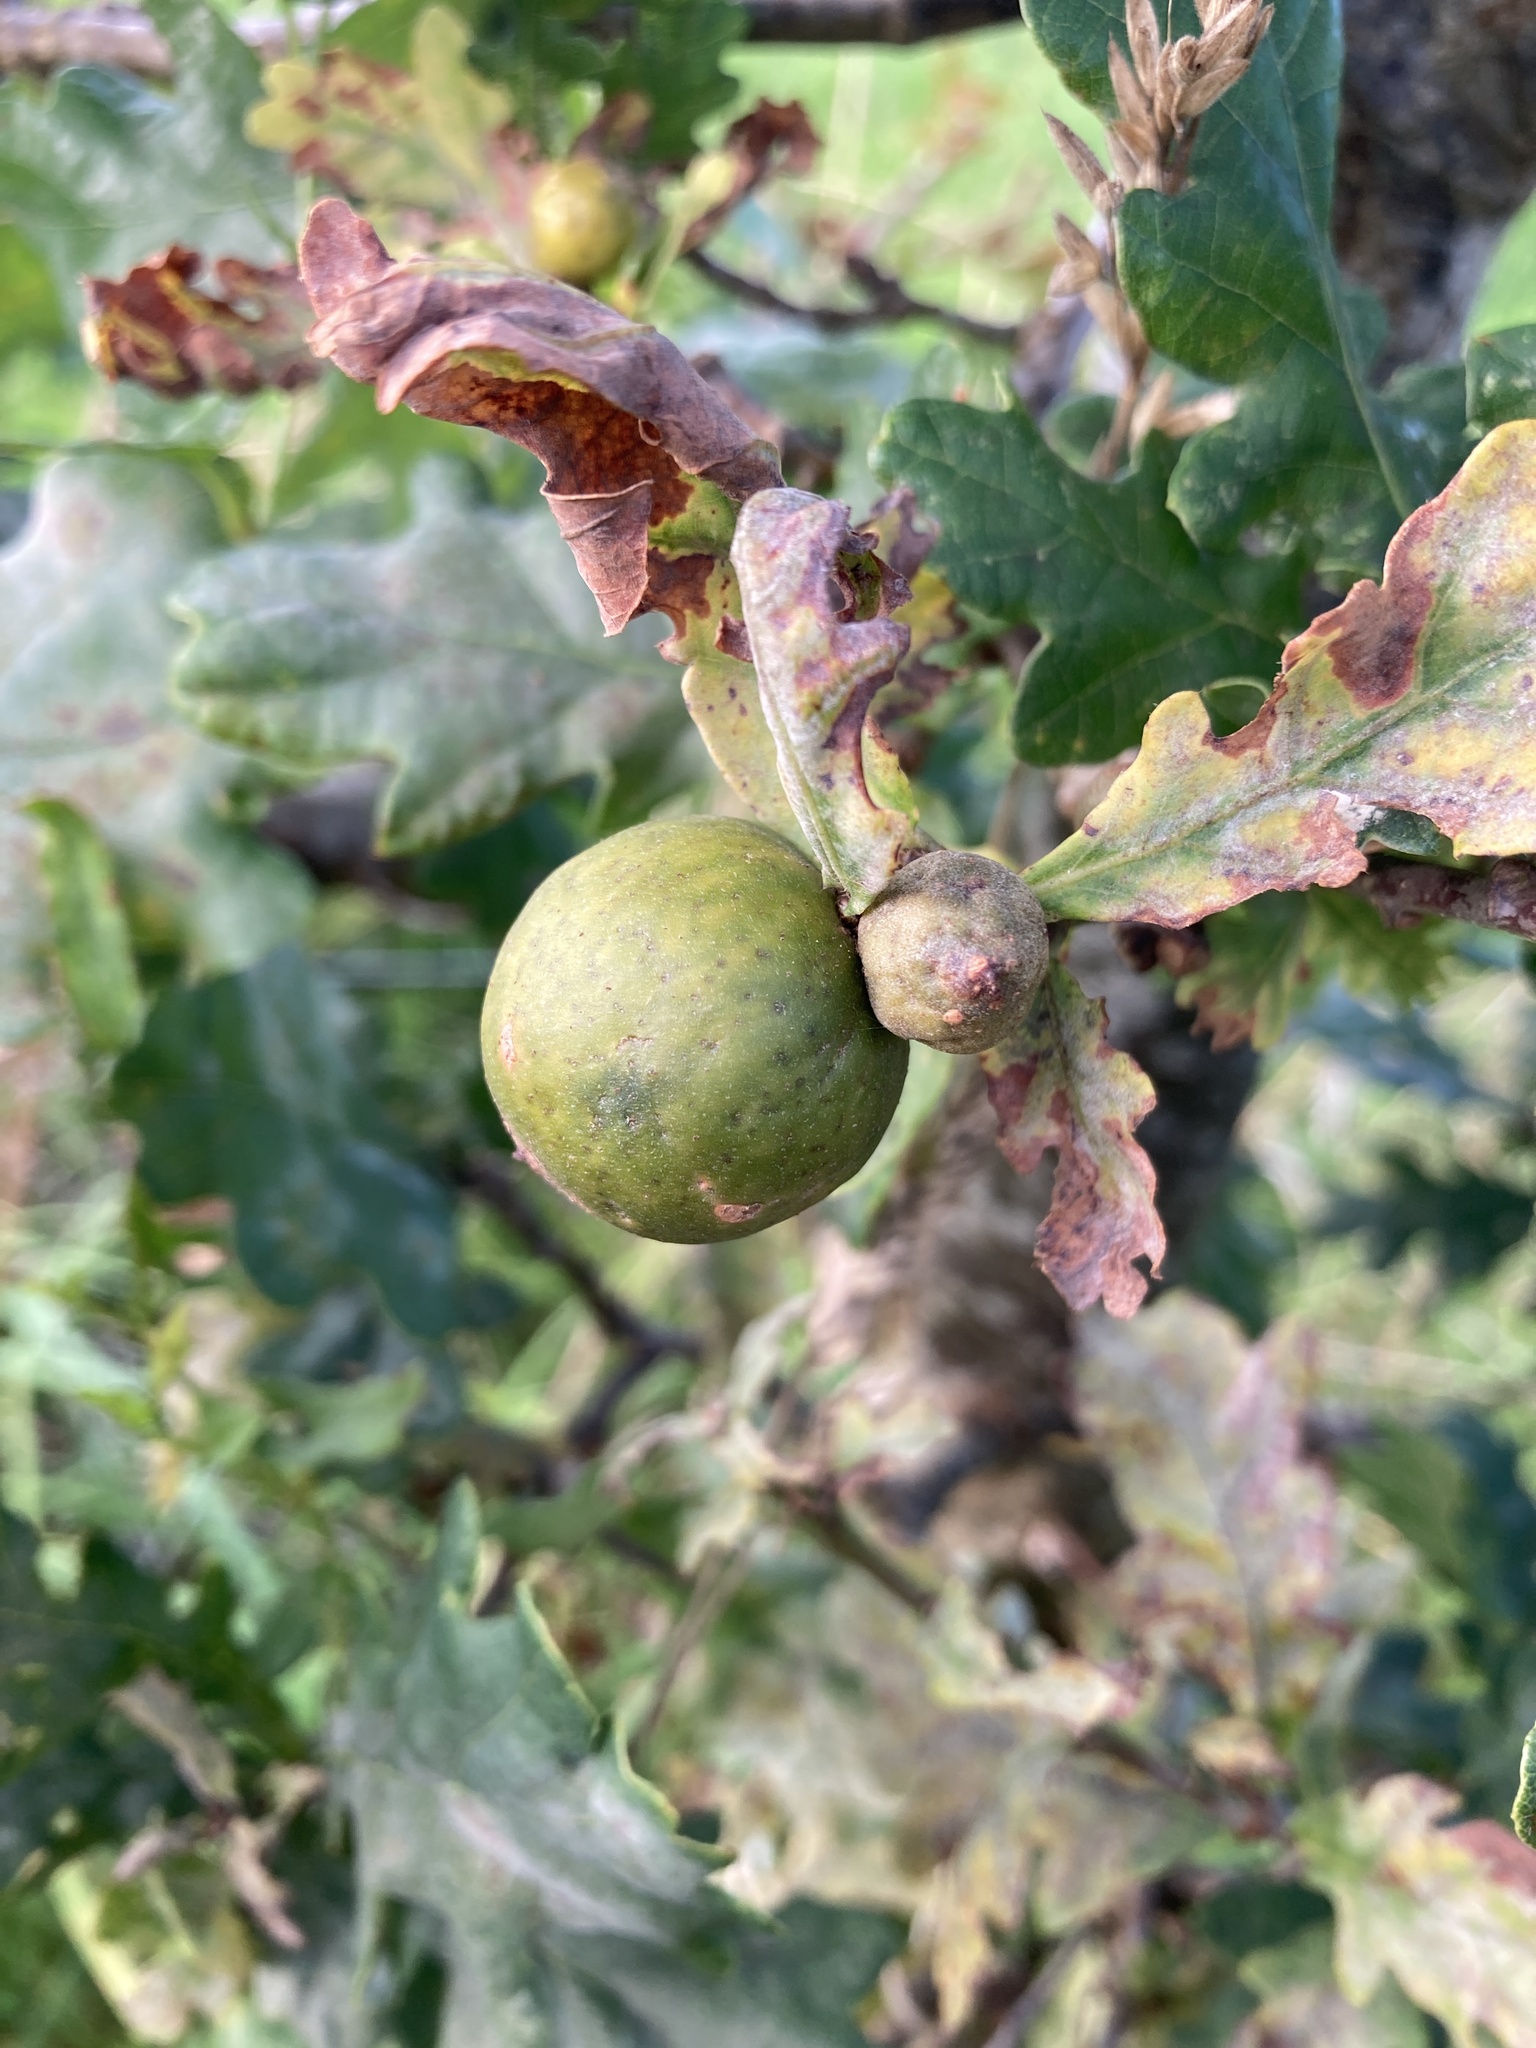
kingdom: Animalia
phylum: Arthropoda
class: Insecta
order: Hymenoptera
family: Cynipidae
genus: Andricus
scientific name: Andricus kollari
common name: Marble gall
